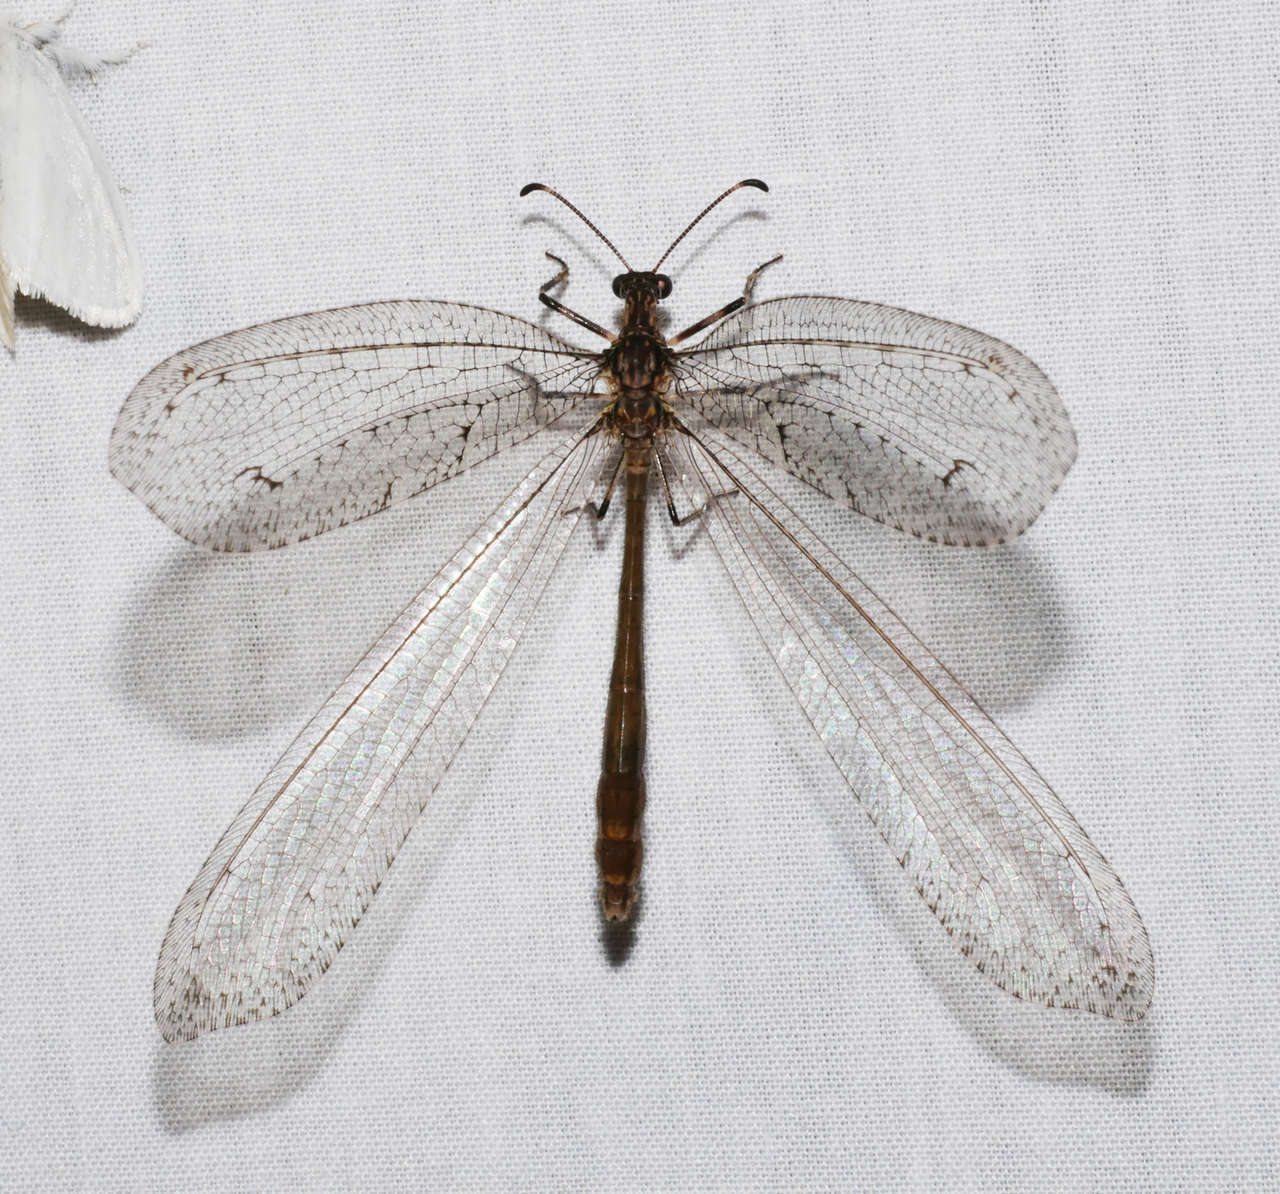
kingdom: Animalia
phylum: Arthropoda
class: Insecta
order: Neuroptera
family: Myrmeleontidae
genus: Mossega
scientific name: Mossega indecisa
